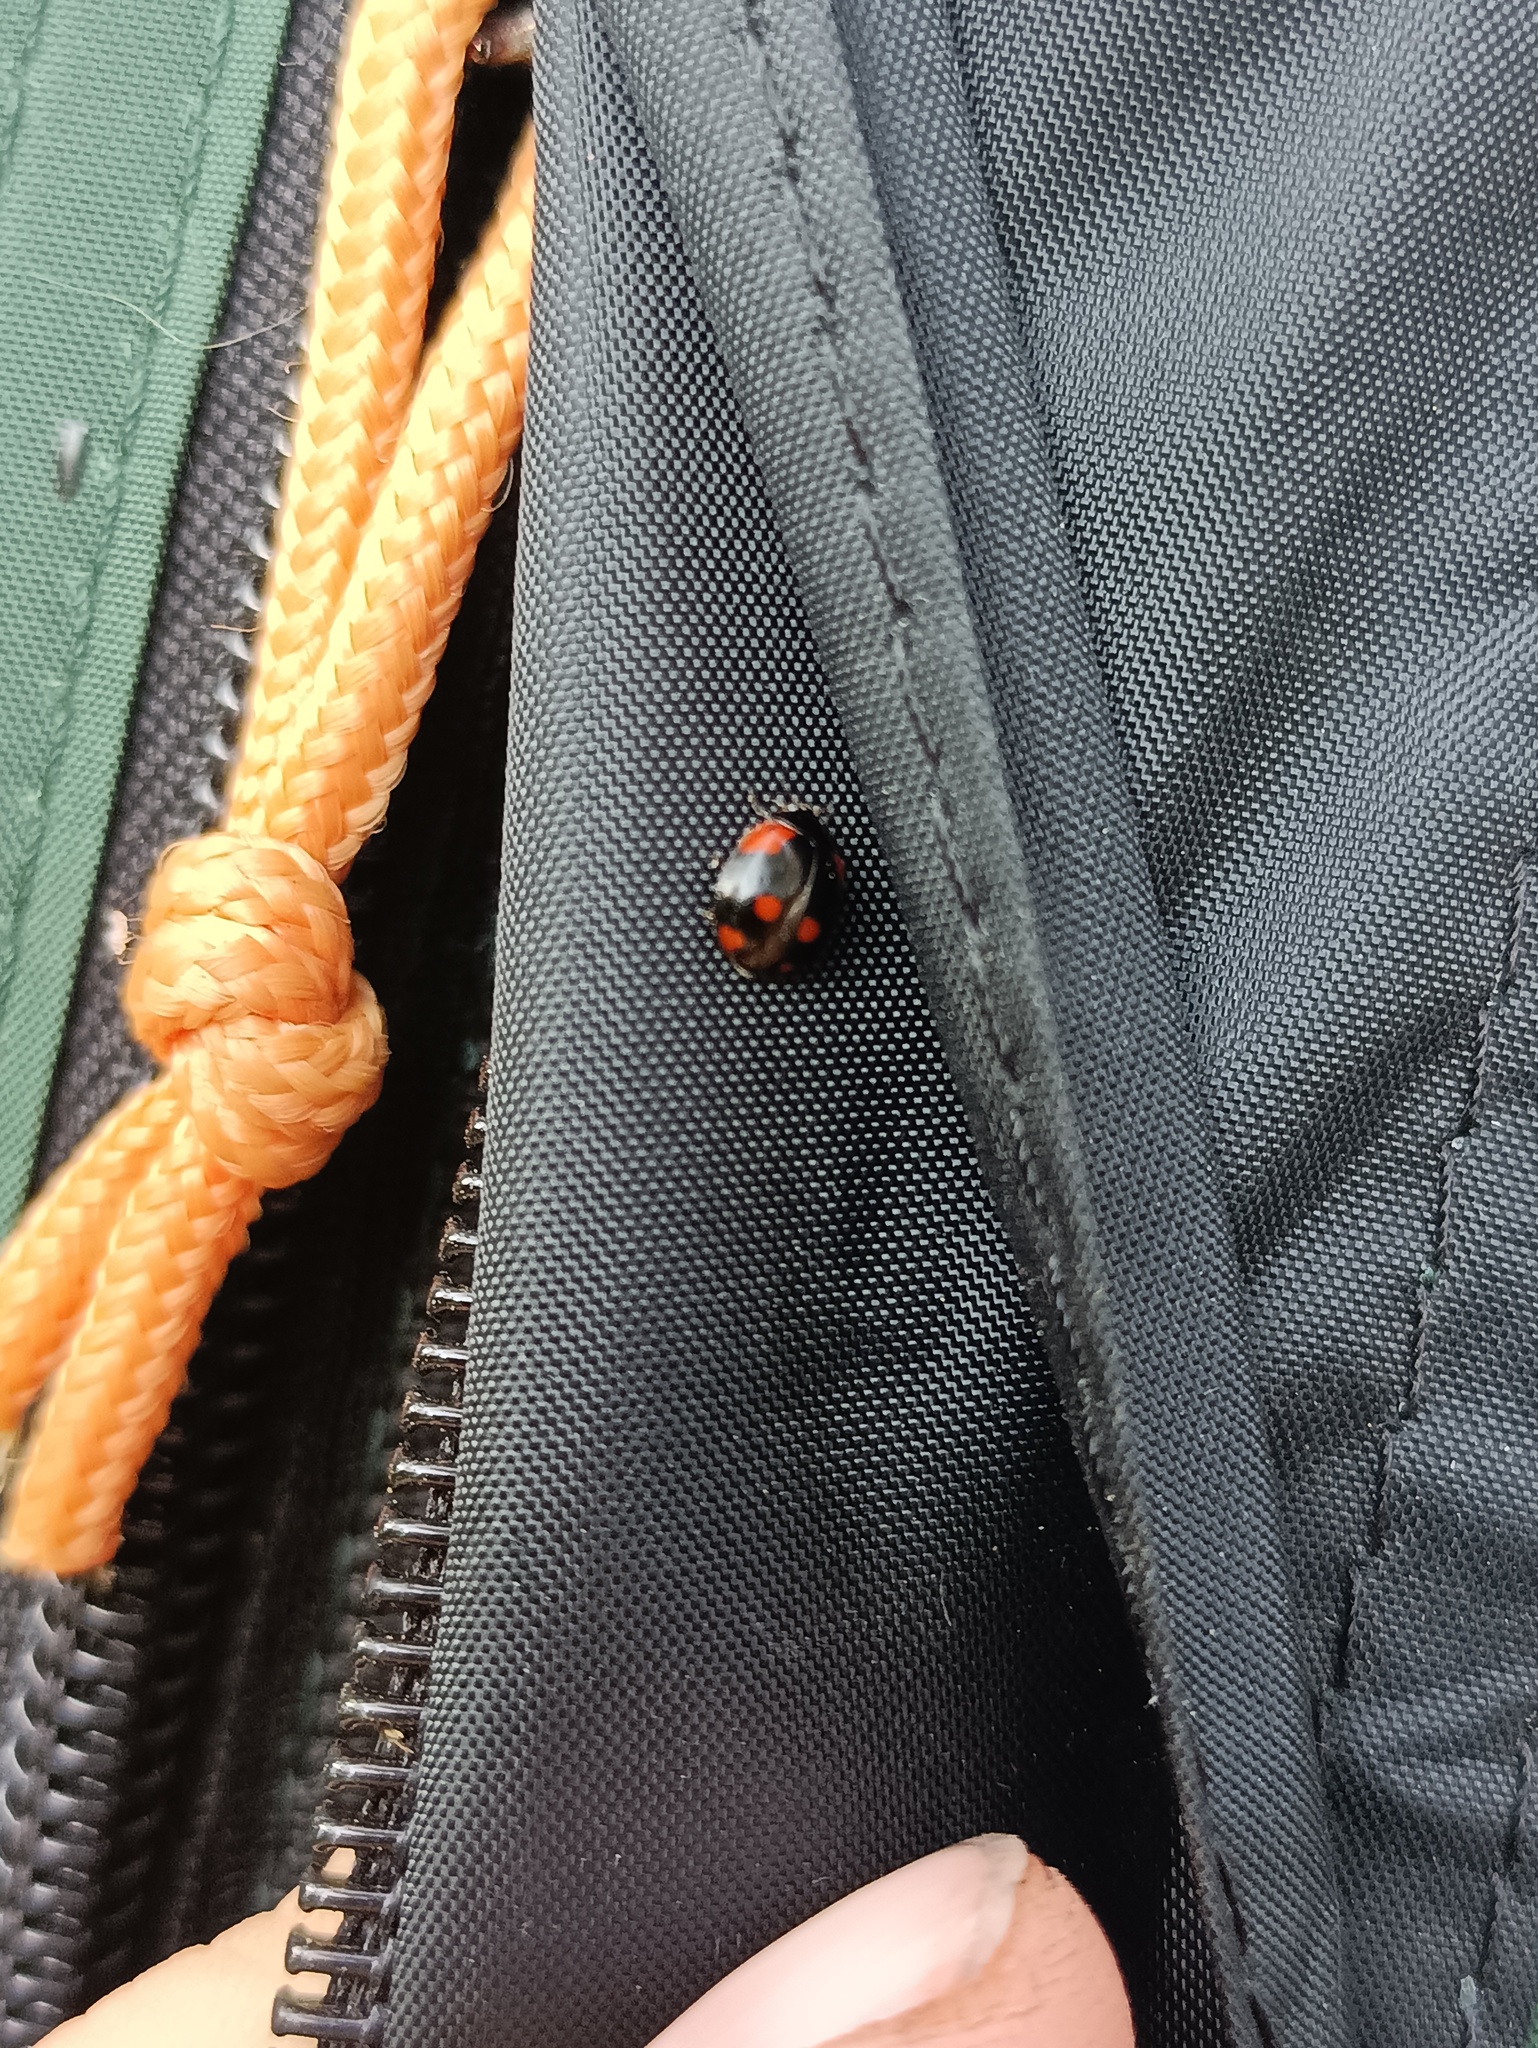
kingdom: Animalia
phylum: Arthropoda
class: Insecta
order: Coleoptera
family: Coccinellidae
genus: Adalia
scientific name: Adalia bipunctata
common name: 2-spot ladybird
